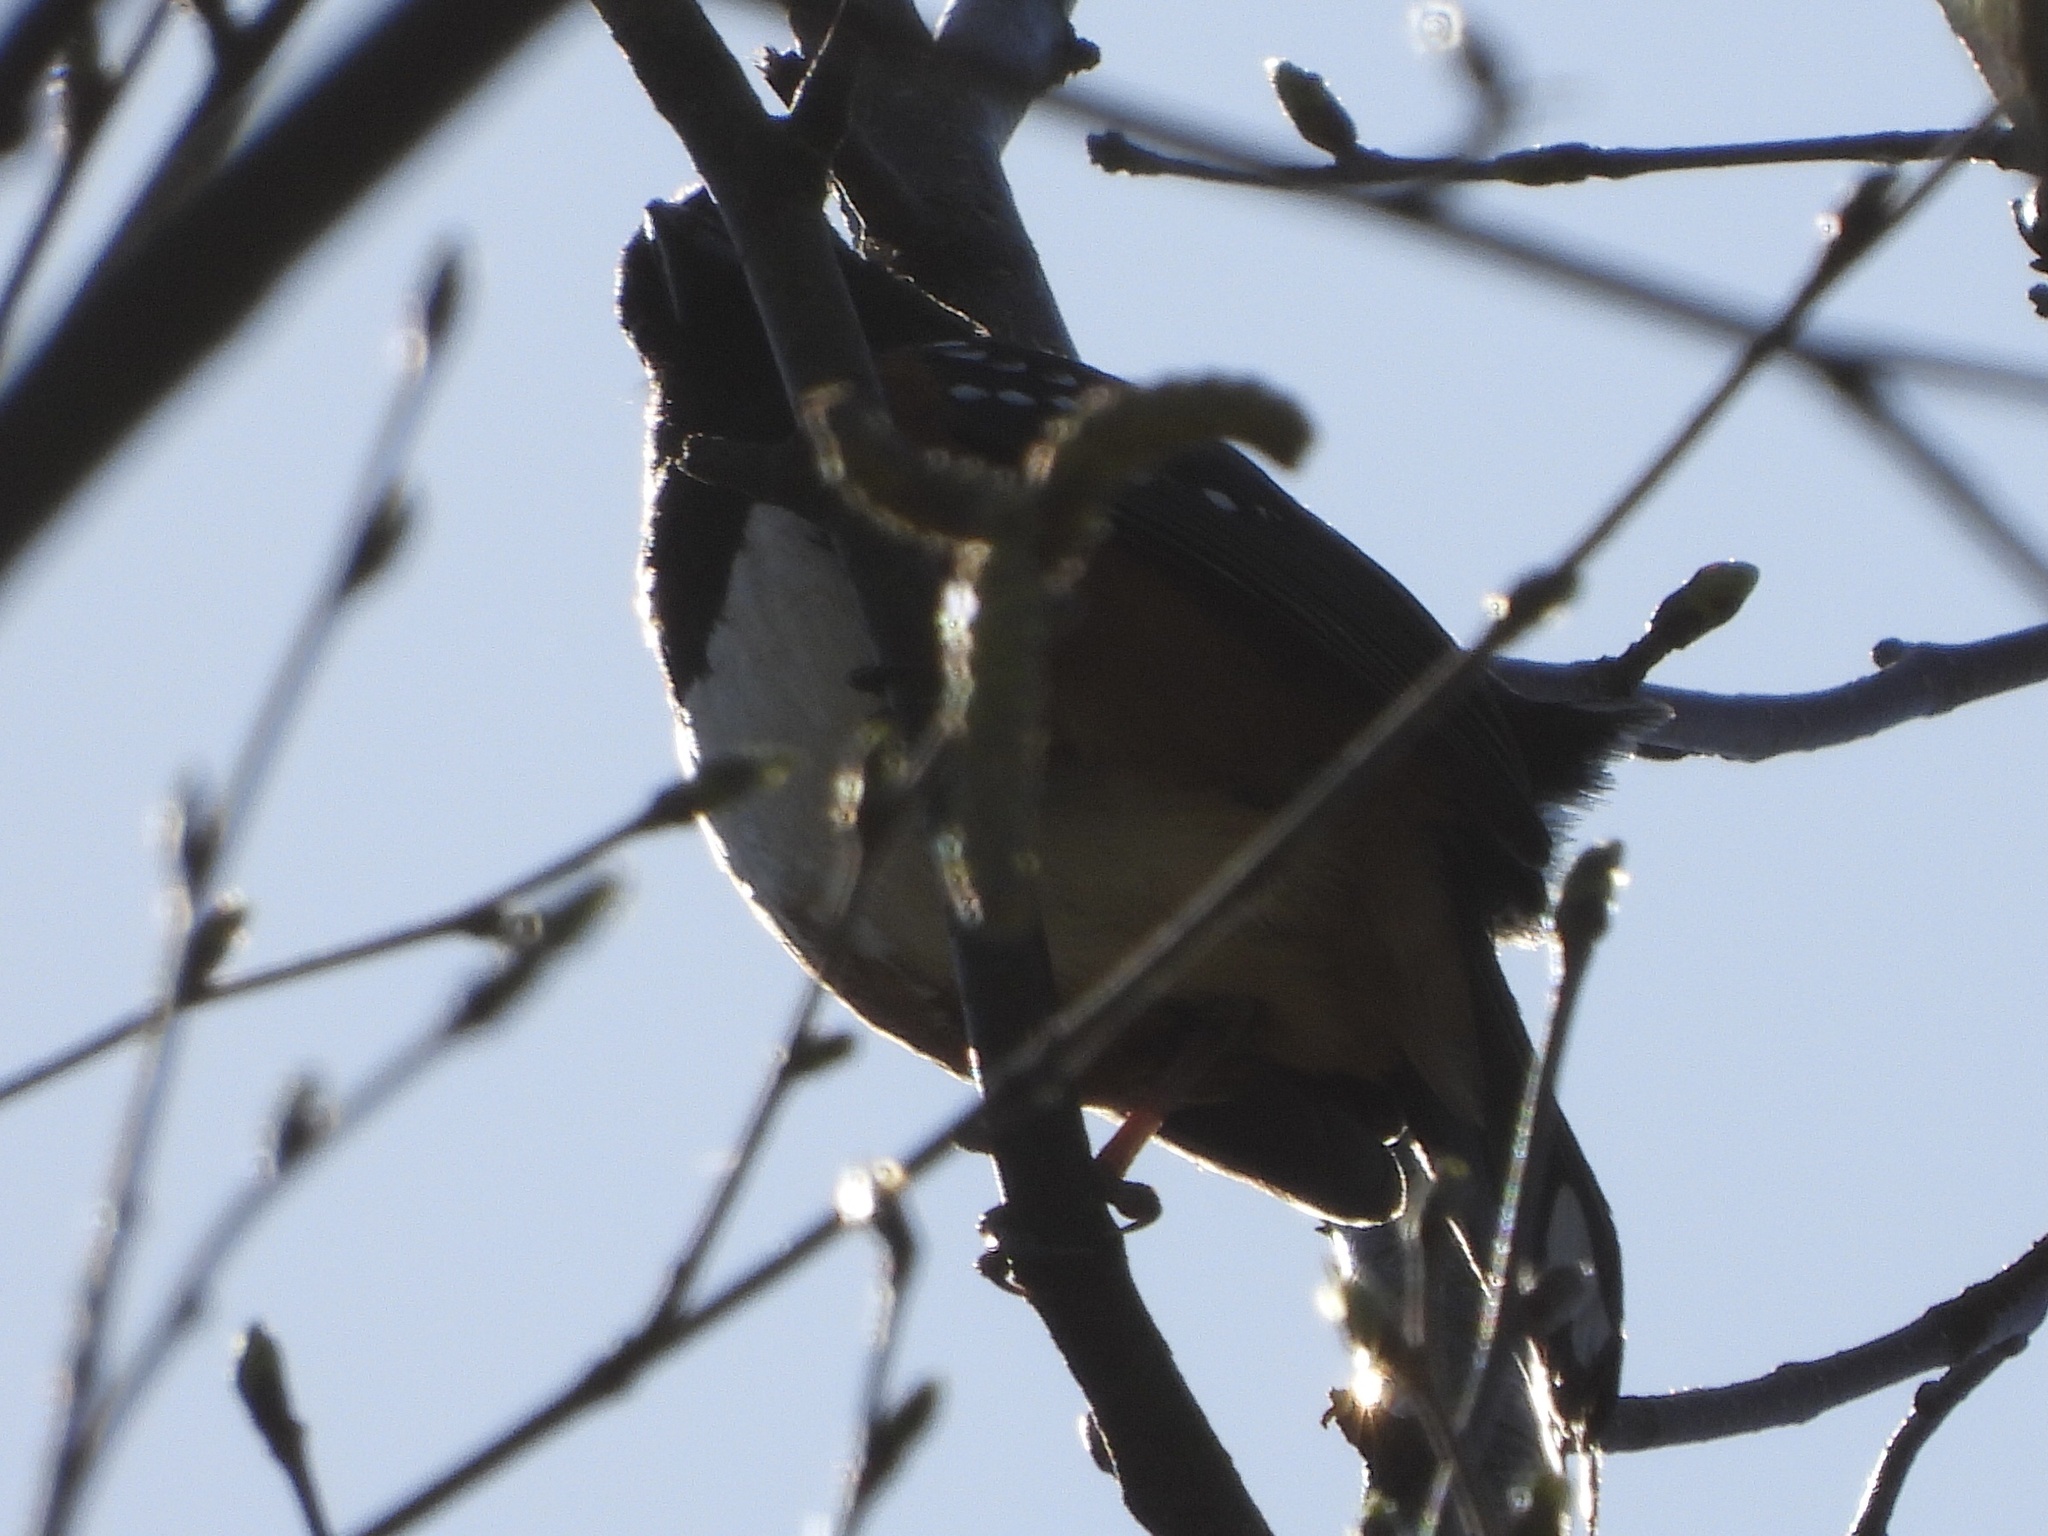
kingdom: Animalia
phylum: Chordata
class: Aves
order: Passeriformes
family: Passerellidae
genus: Pipilo
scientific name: Pipilo maculatus
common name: Spotted towhee
